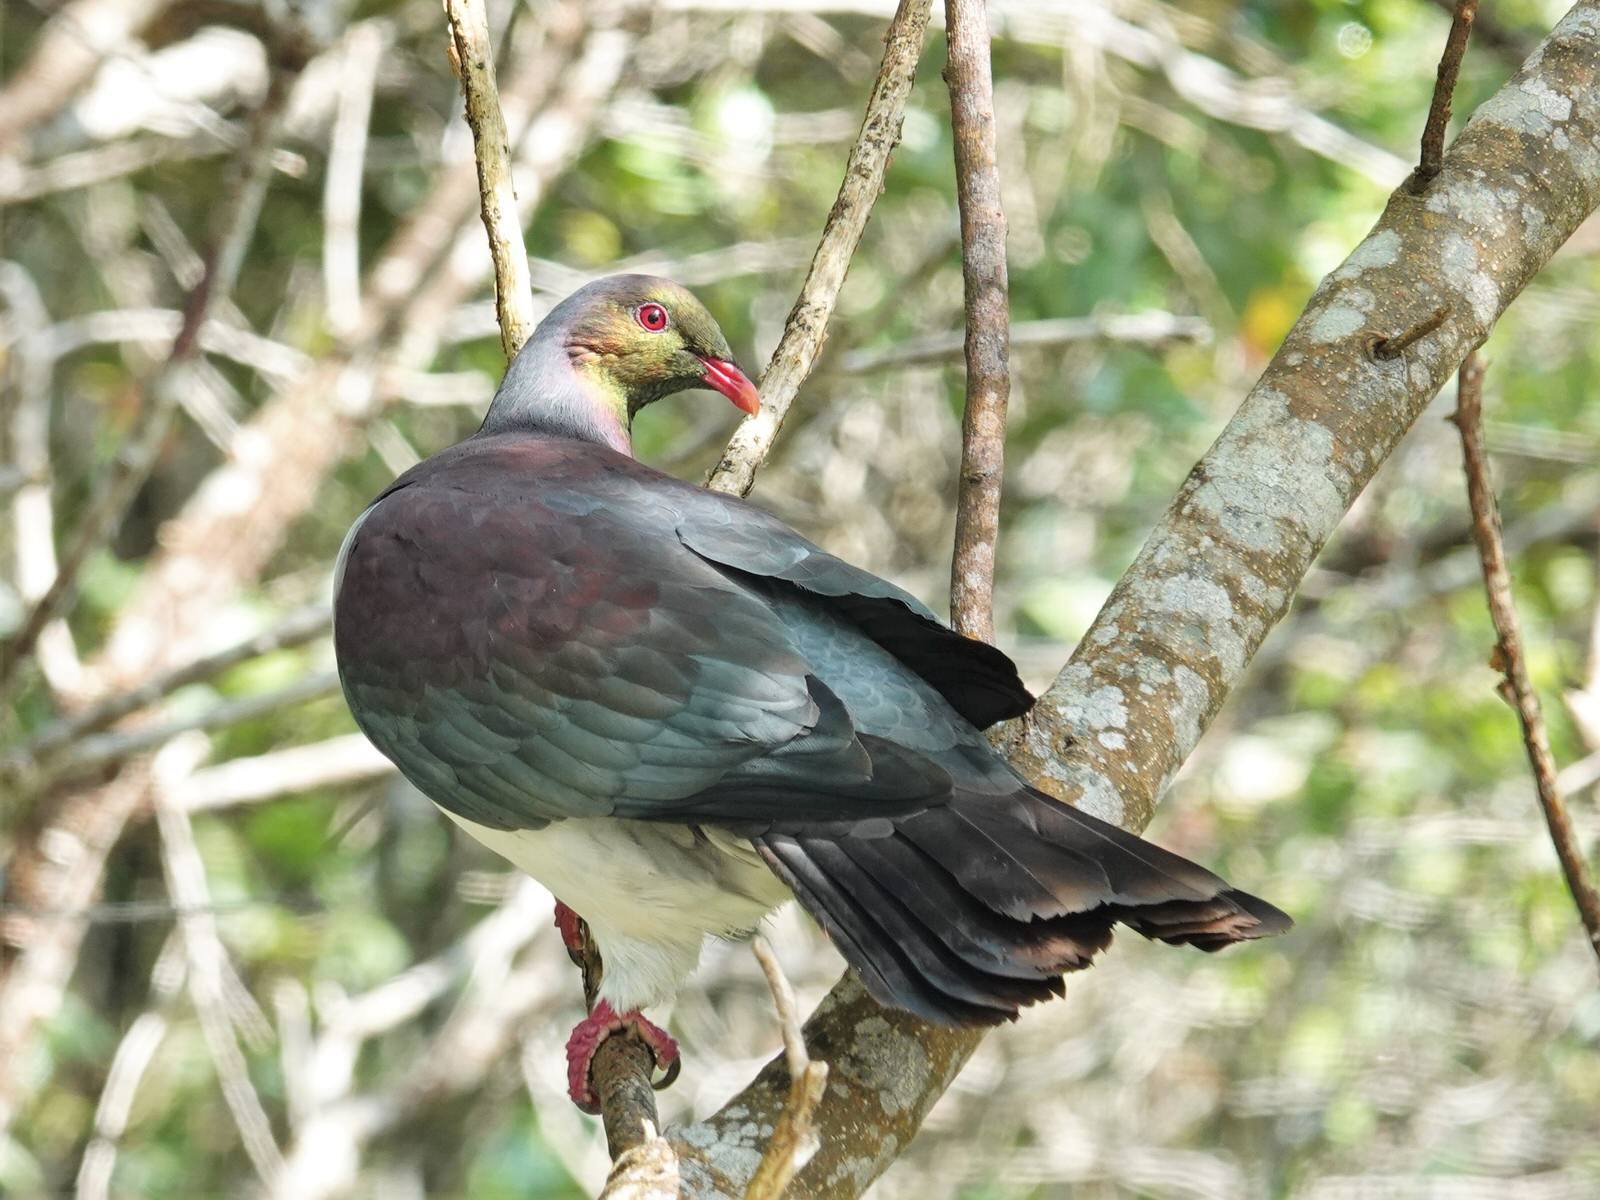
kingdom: Animalia
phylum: Chordata
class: Aves
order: Columbiformes
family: Columbidae
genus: Hemiphaga
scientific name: Hemiphaga novaeseelandiae
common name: New zealand pigeon
